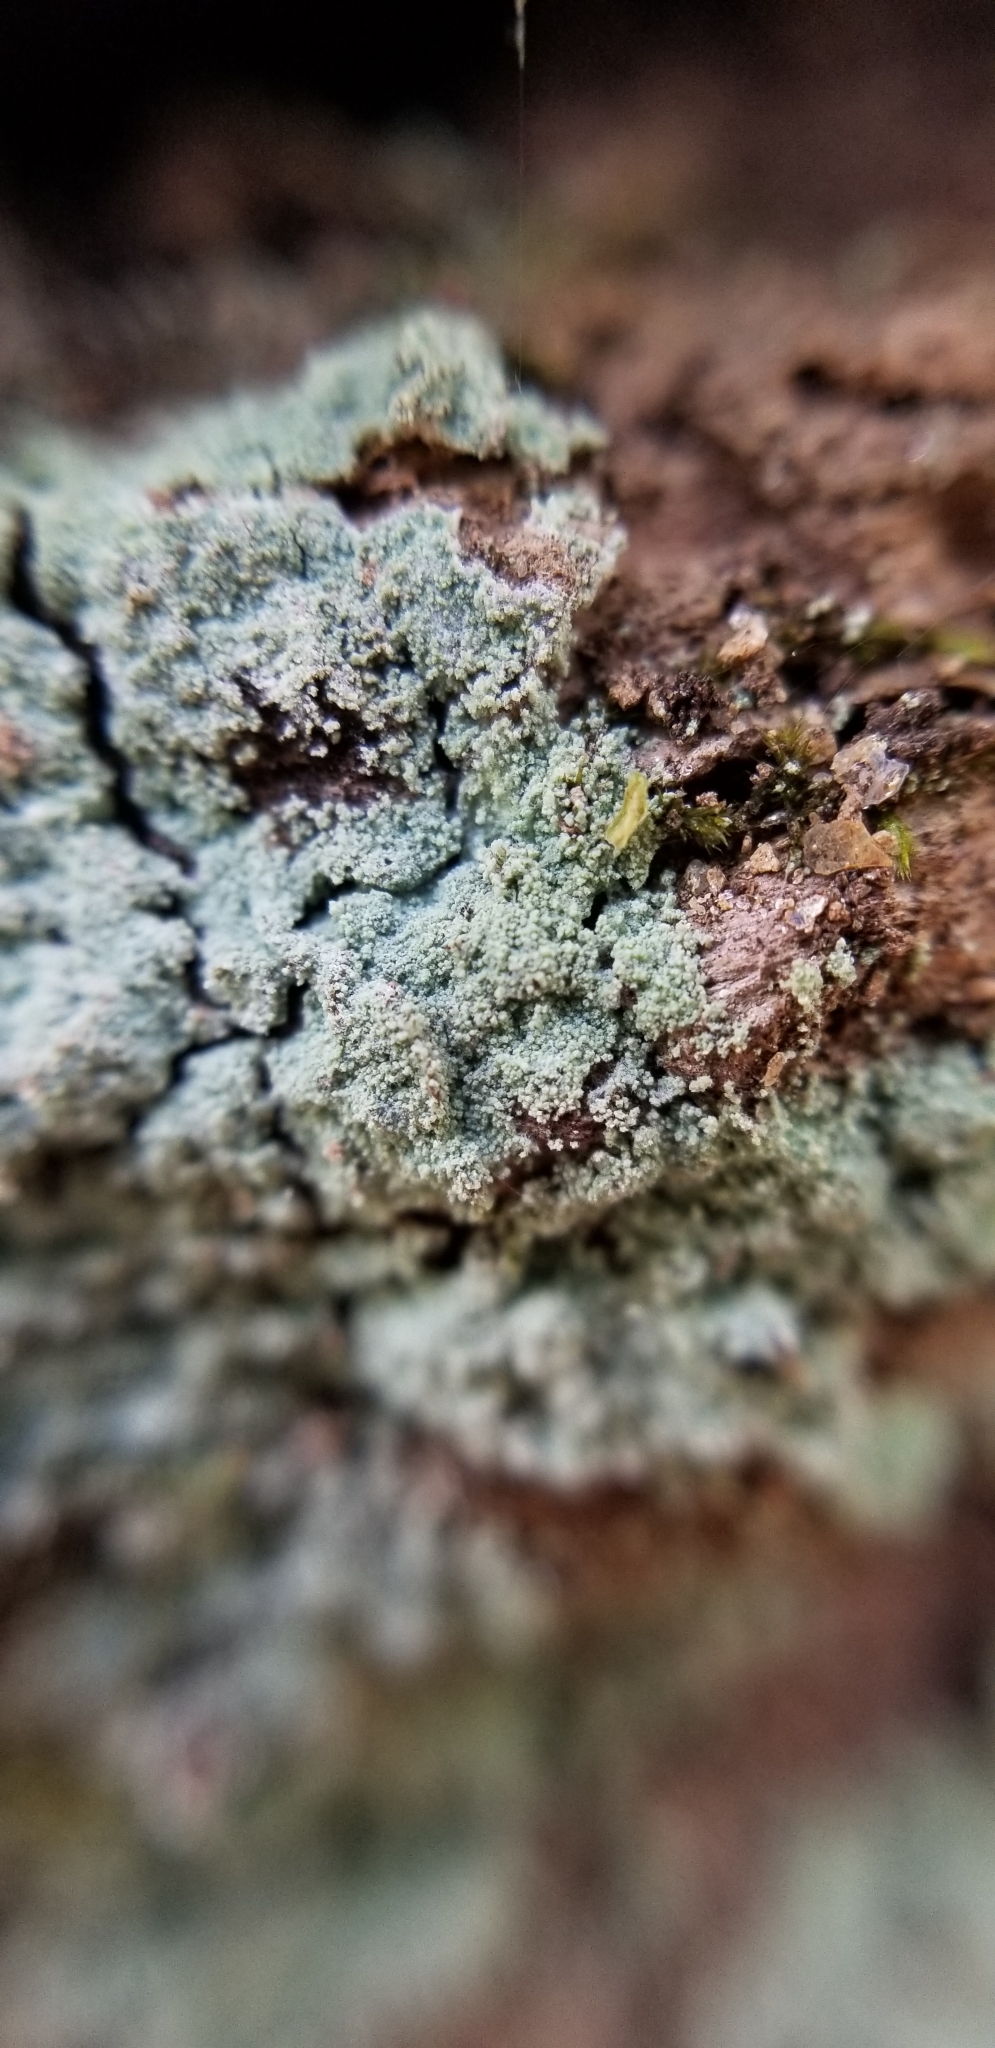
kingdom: Fungi
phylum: Ascomycota
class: Lecanoromycetes
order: Lecanorales
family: Stereocaulaceae
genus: Lepraria
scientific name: Lepraria lobificans
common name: Fluffy dust lichen
